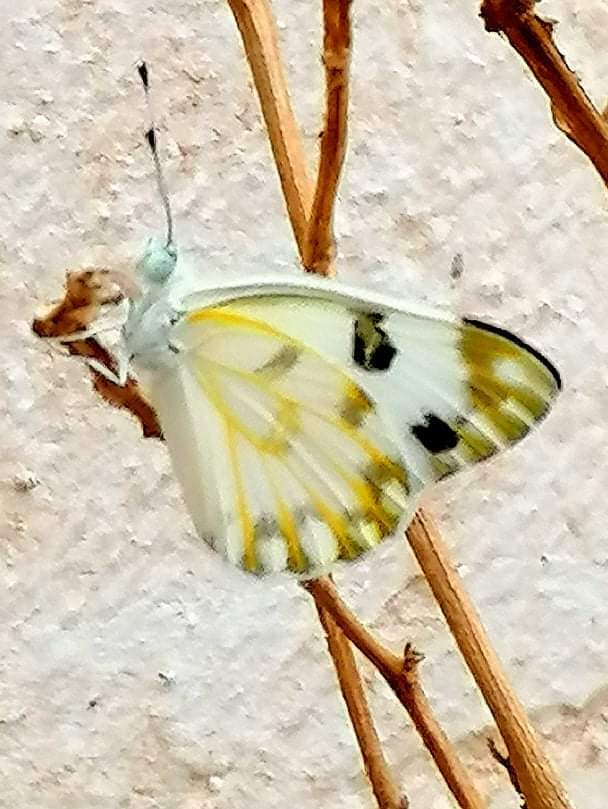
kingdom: Animalia
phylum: Arthropoda
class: Insecta
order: Lepidoptera
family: Pieridae
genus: Pontia
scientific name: Pontia glauconome
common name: Desert bath white
